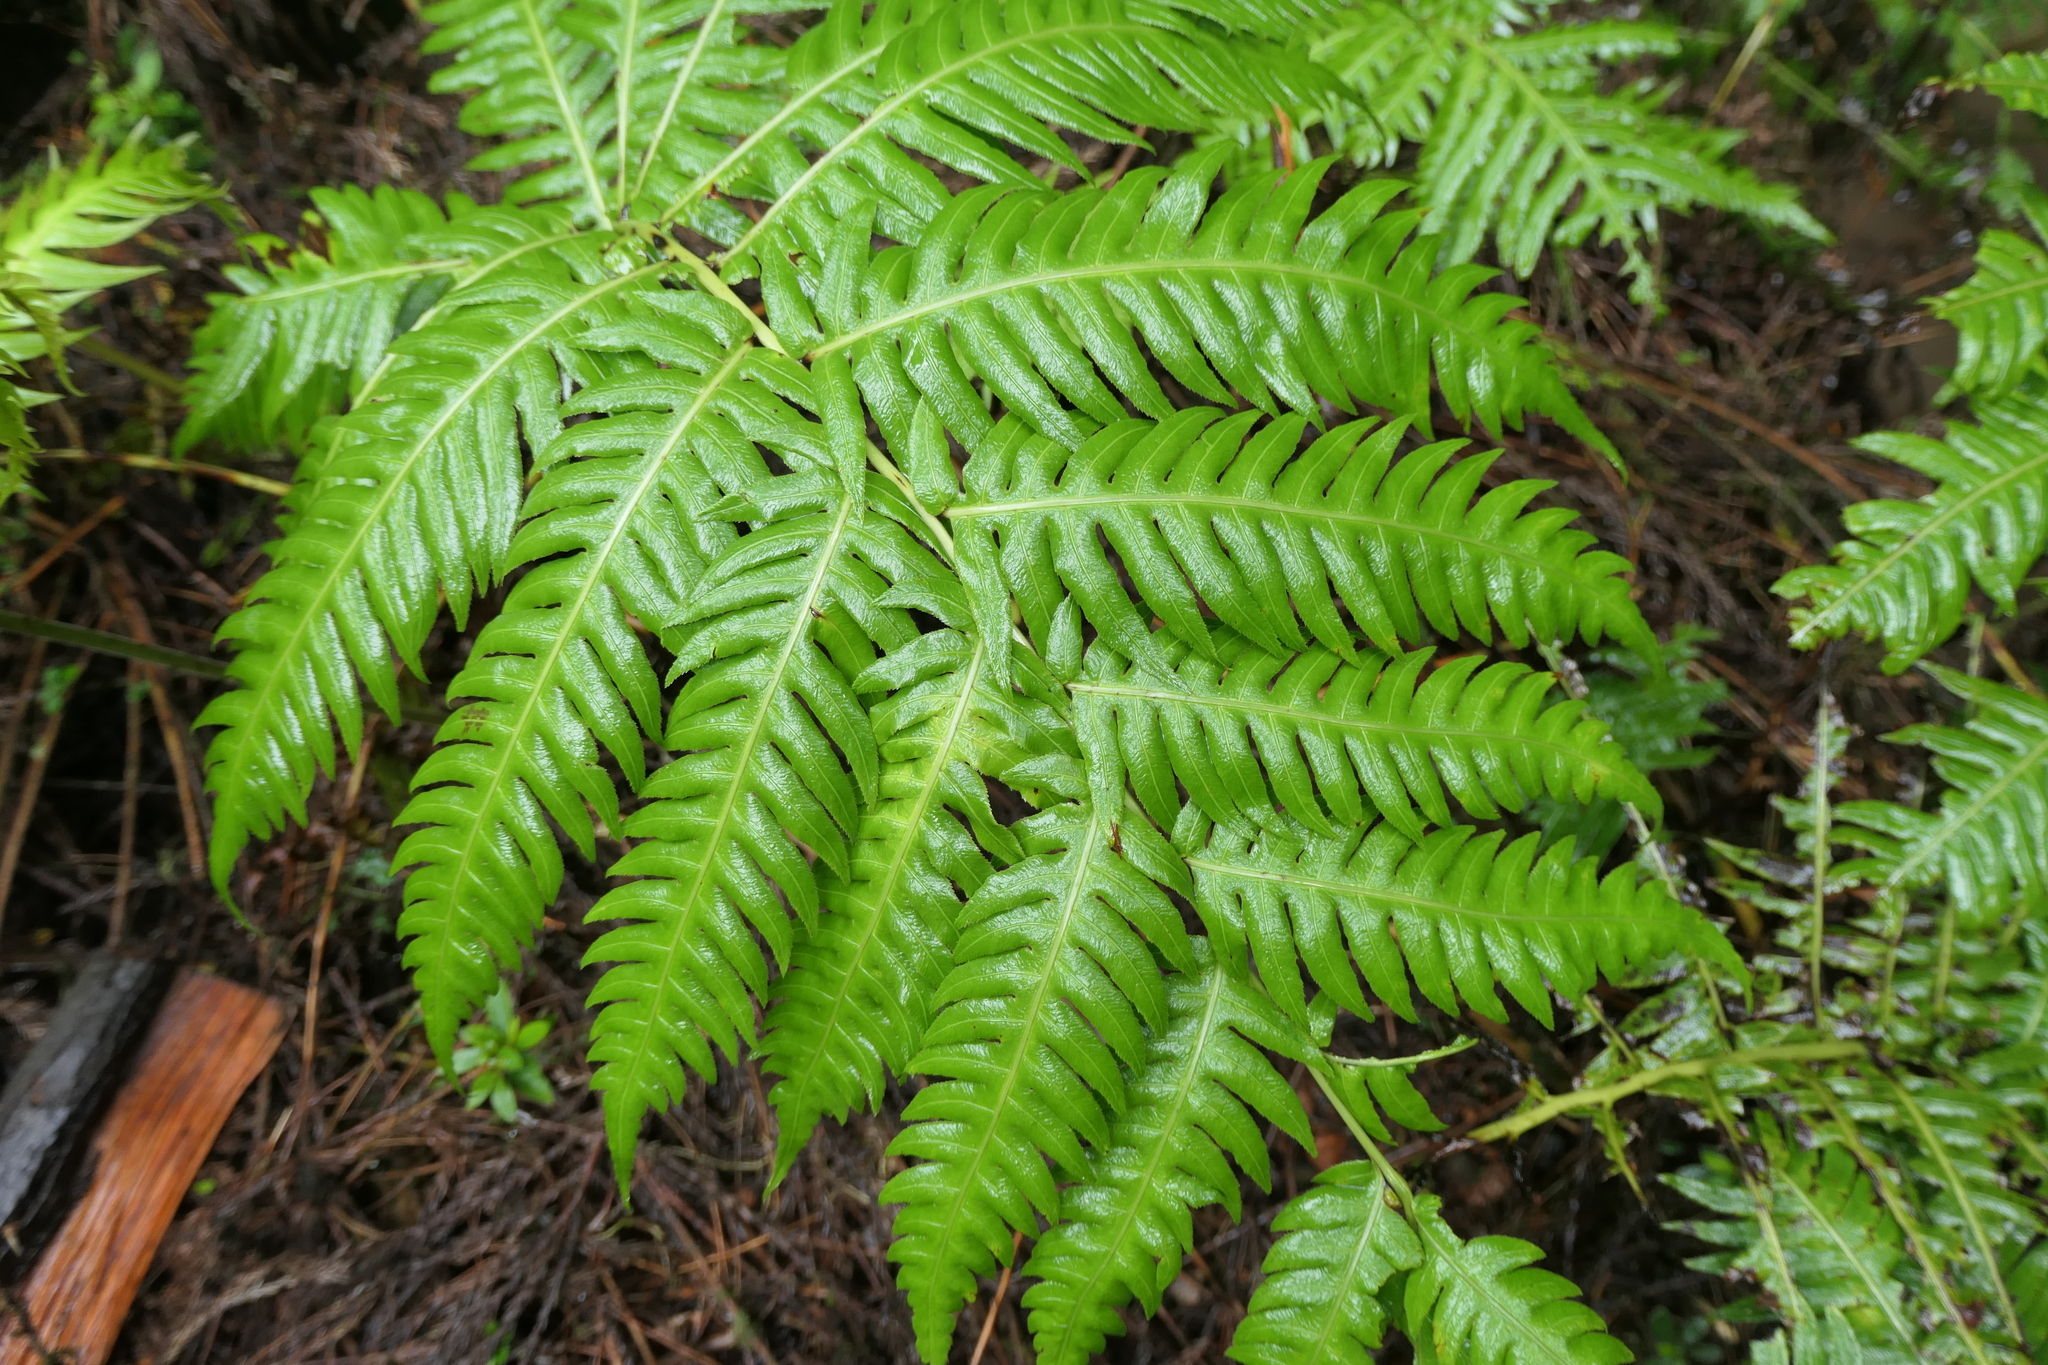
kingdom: Plantae
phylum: Tracheophyta
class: Polypodiopsida
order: Polypodiales
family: Blechnaceae
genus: Woodwardia
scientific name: Woodwardia radicans
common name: Rooting chainfern
